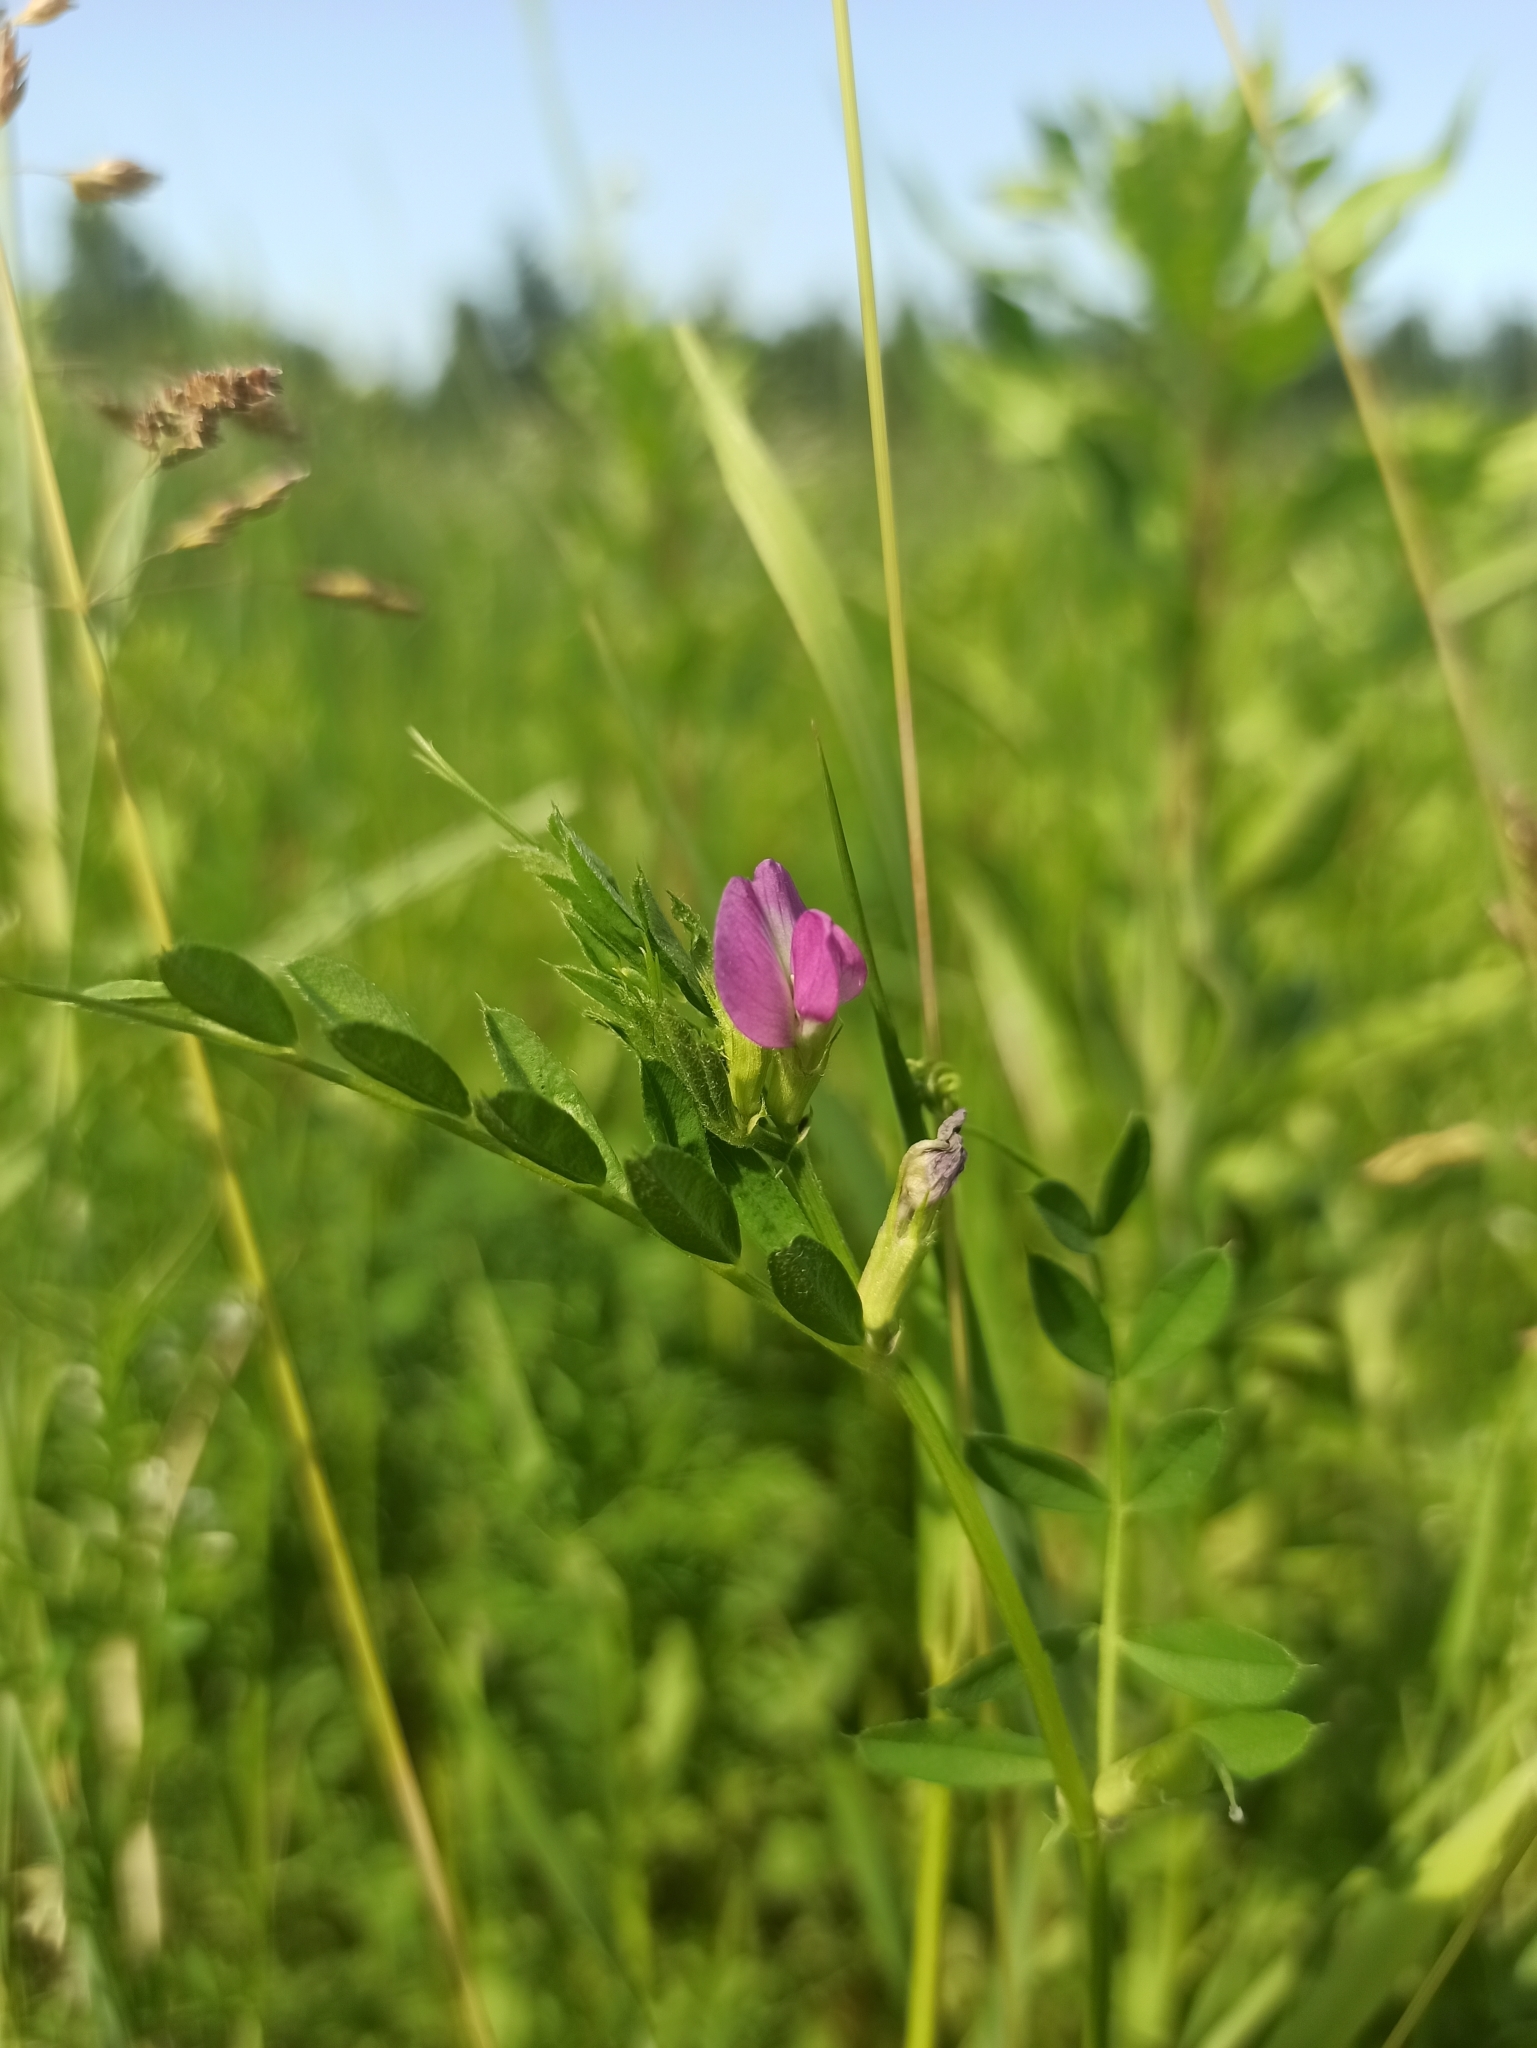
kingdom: Plantae
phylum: Tracheophyta
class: Magnoliopsida
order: Fabales
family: Fabaceae
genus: Vicia
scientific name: Vicia sativa
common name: Garden vetch
